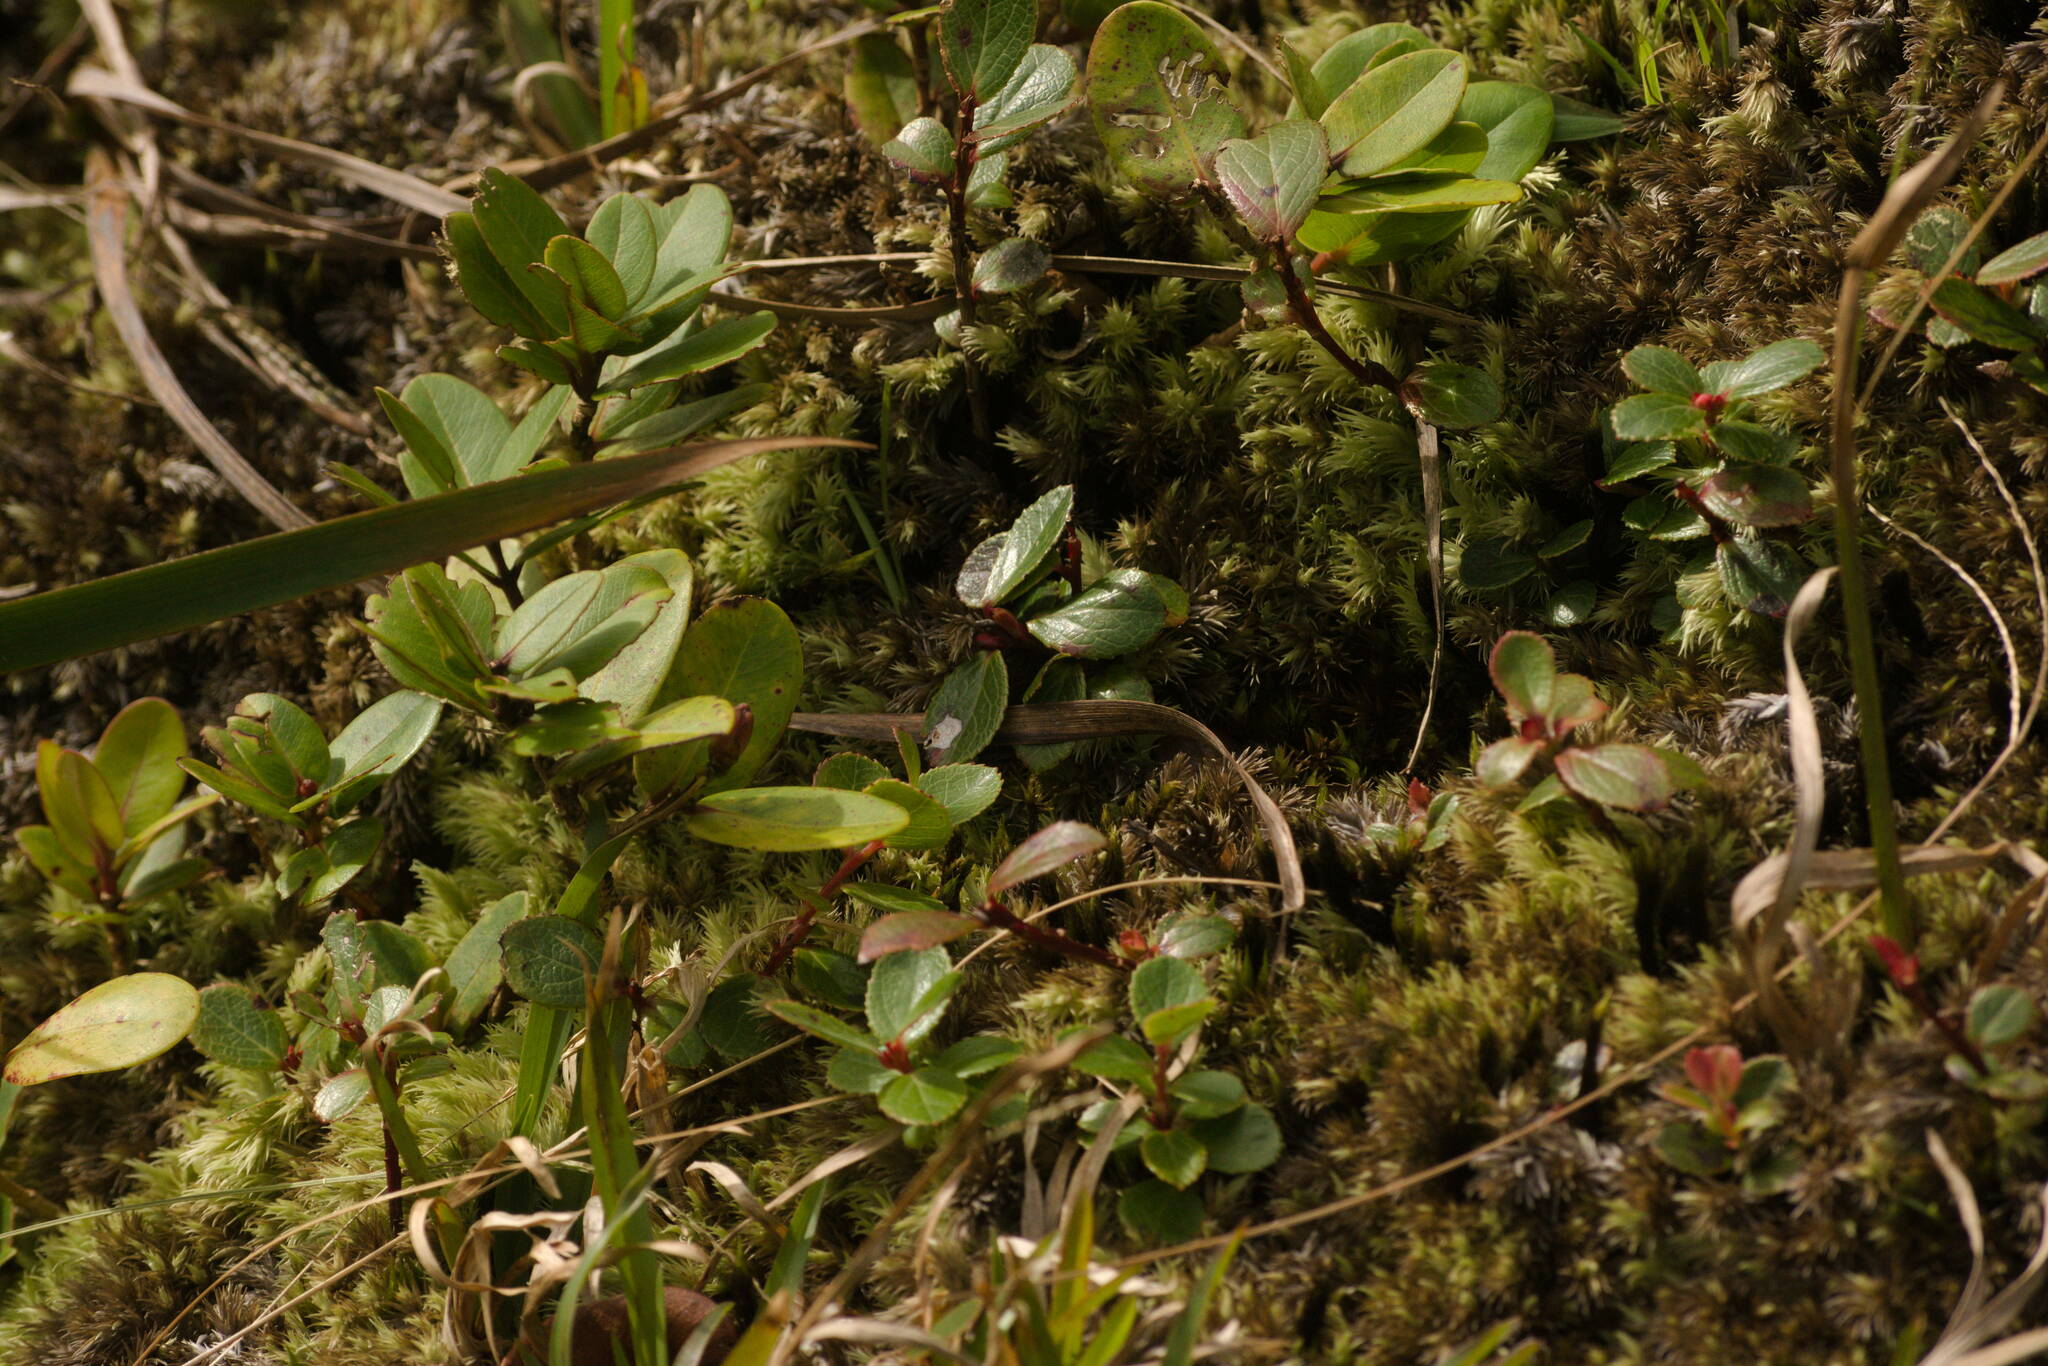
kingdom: Plantae
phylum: Tracheophyta
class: Magnoliopsida
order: Ericales
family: Ericaceae
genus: Vaccinium
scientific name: Vaccinium dentatum
